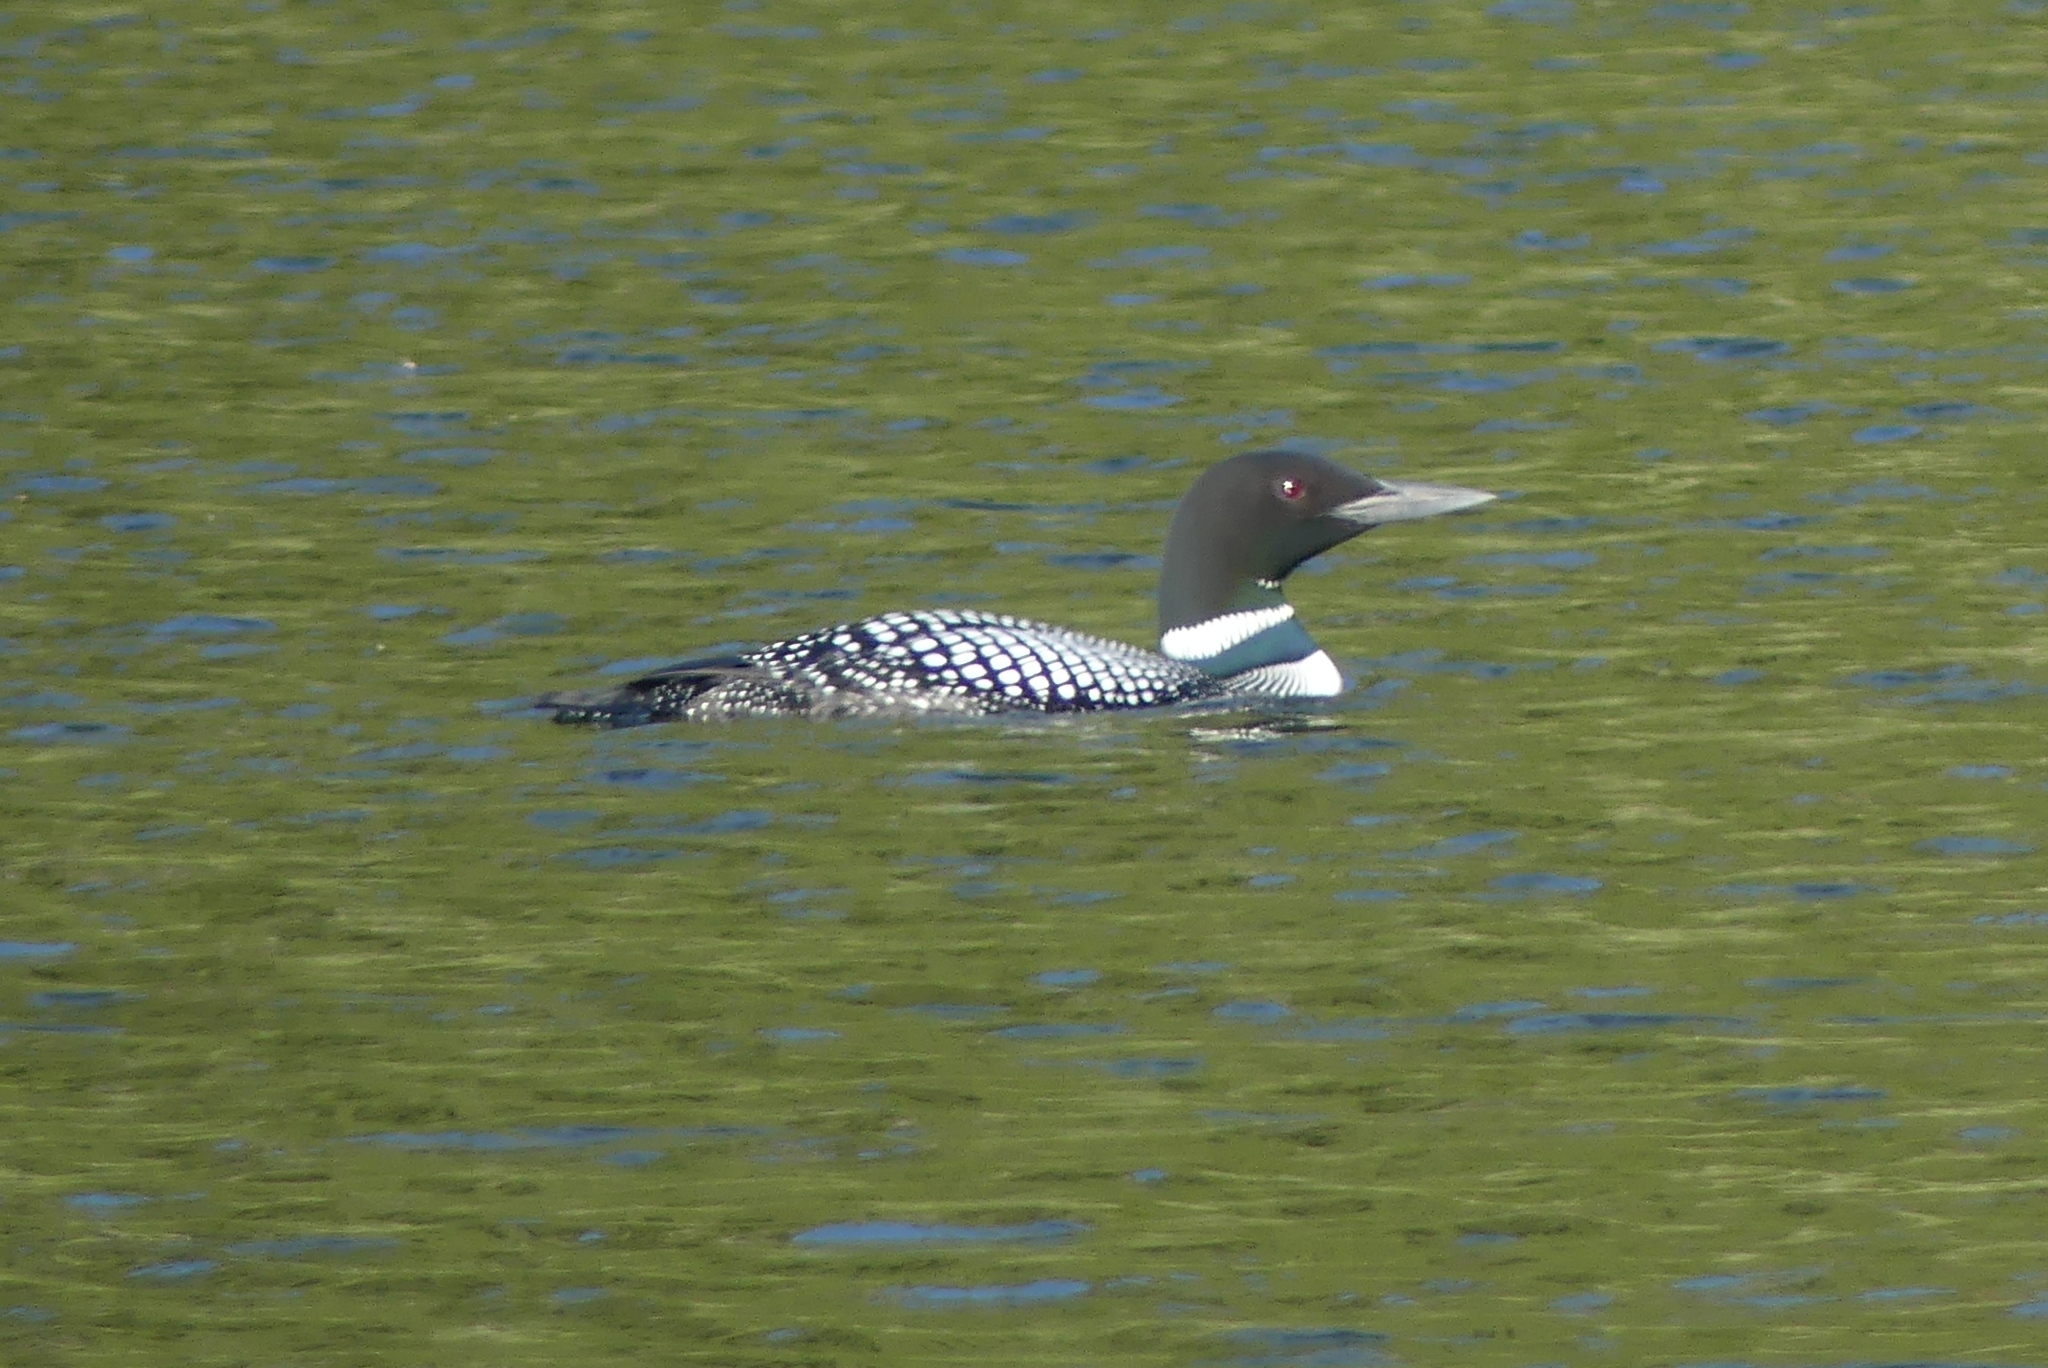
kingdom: Animalia
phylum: Chordata
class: Aves
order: Gaviiformes
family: Gaviidae
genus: Gavia
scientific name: Gavia immer
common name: Common loon
